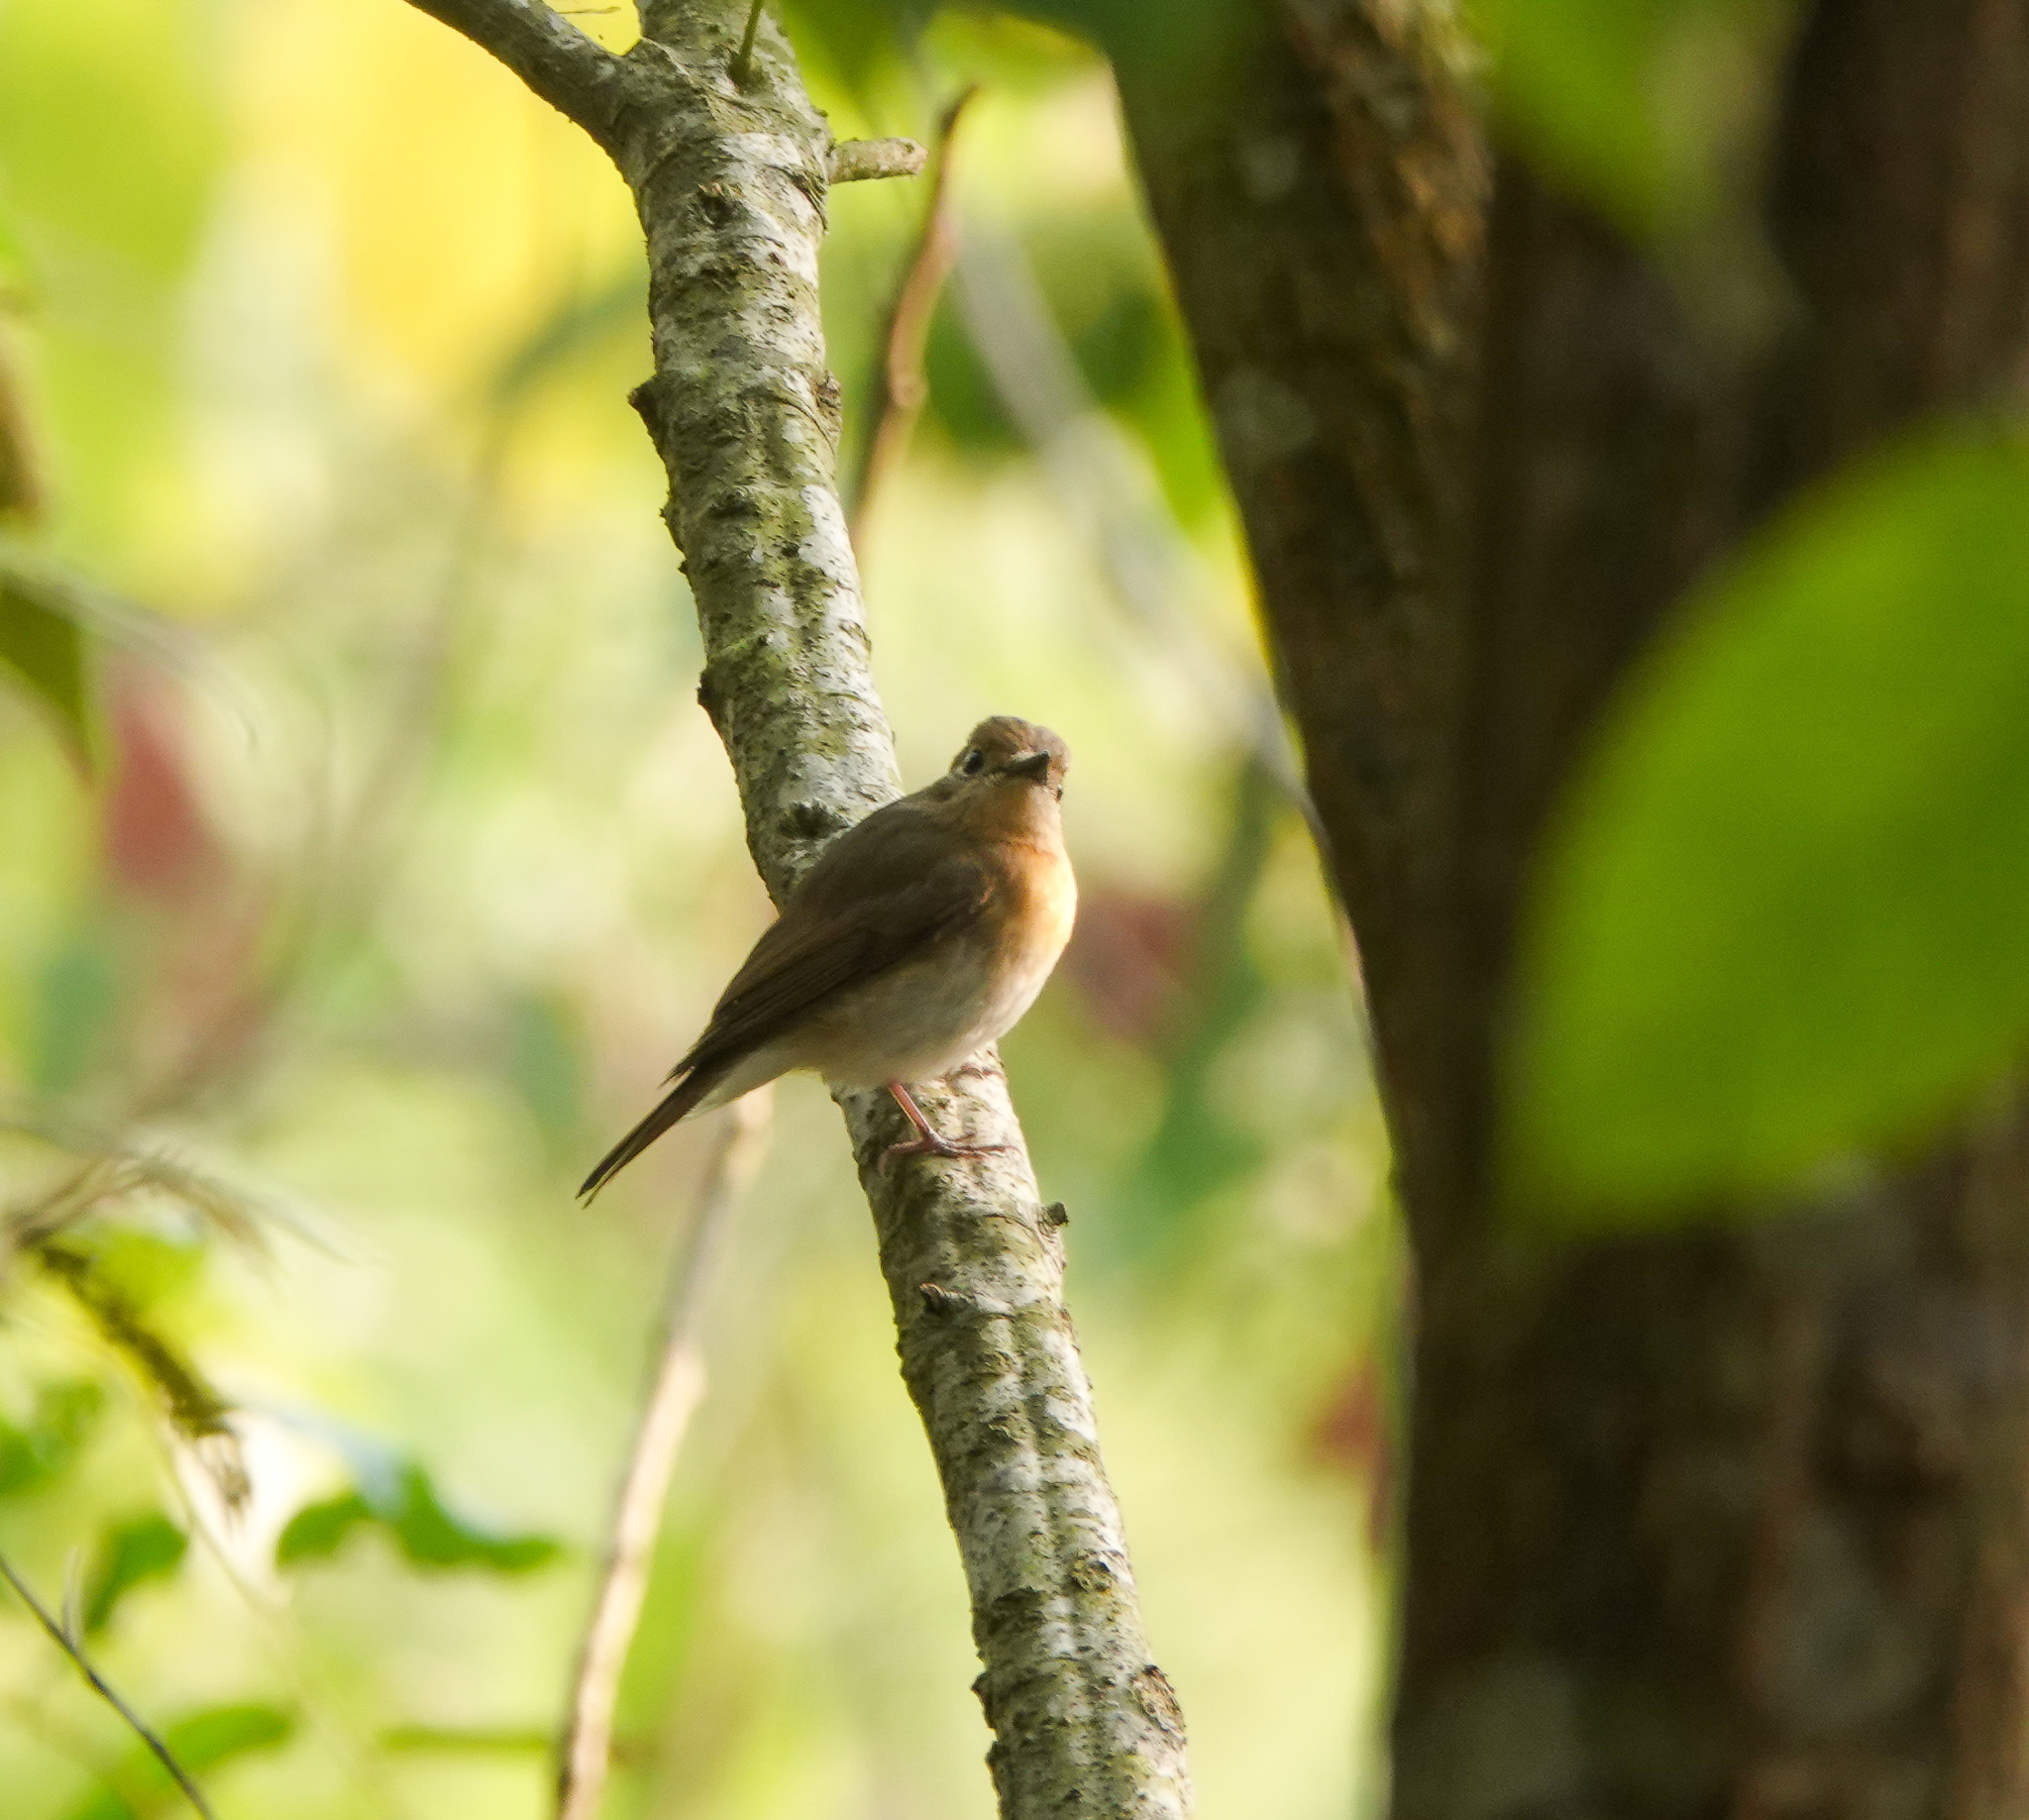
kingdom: Animalia
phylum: Chordata
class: Aves
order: Passeriformes
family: Muscicapidae
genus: Cyornis
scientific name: Cyornis rubeculoides
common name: Blue-throated blue flycatcher
